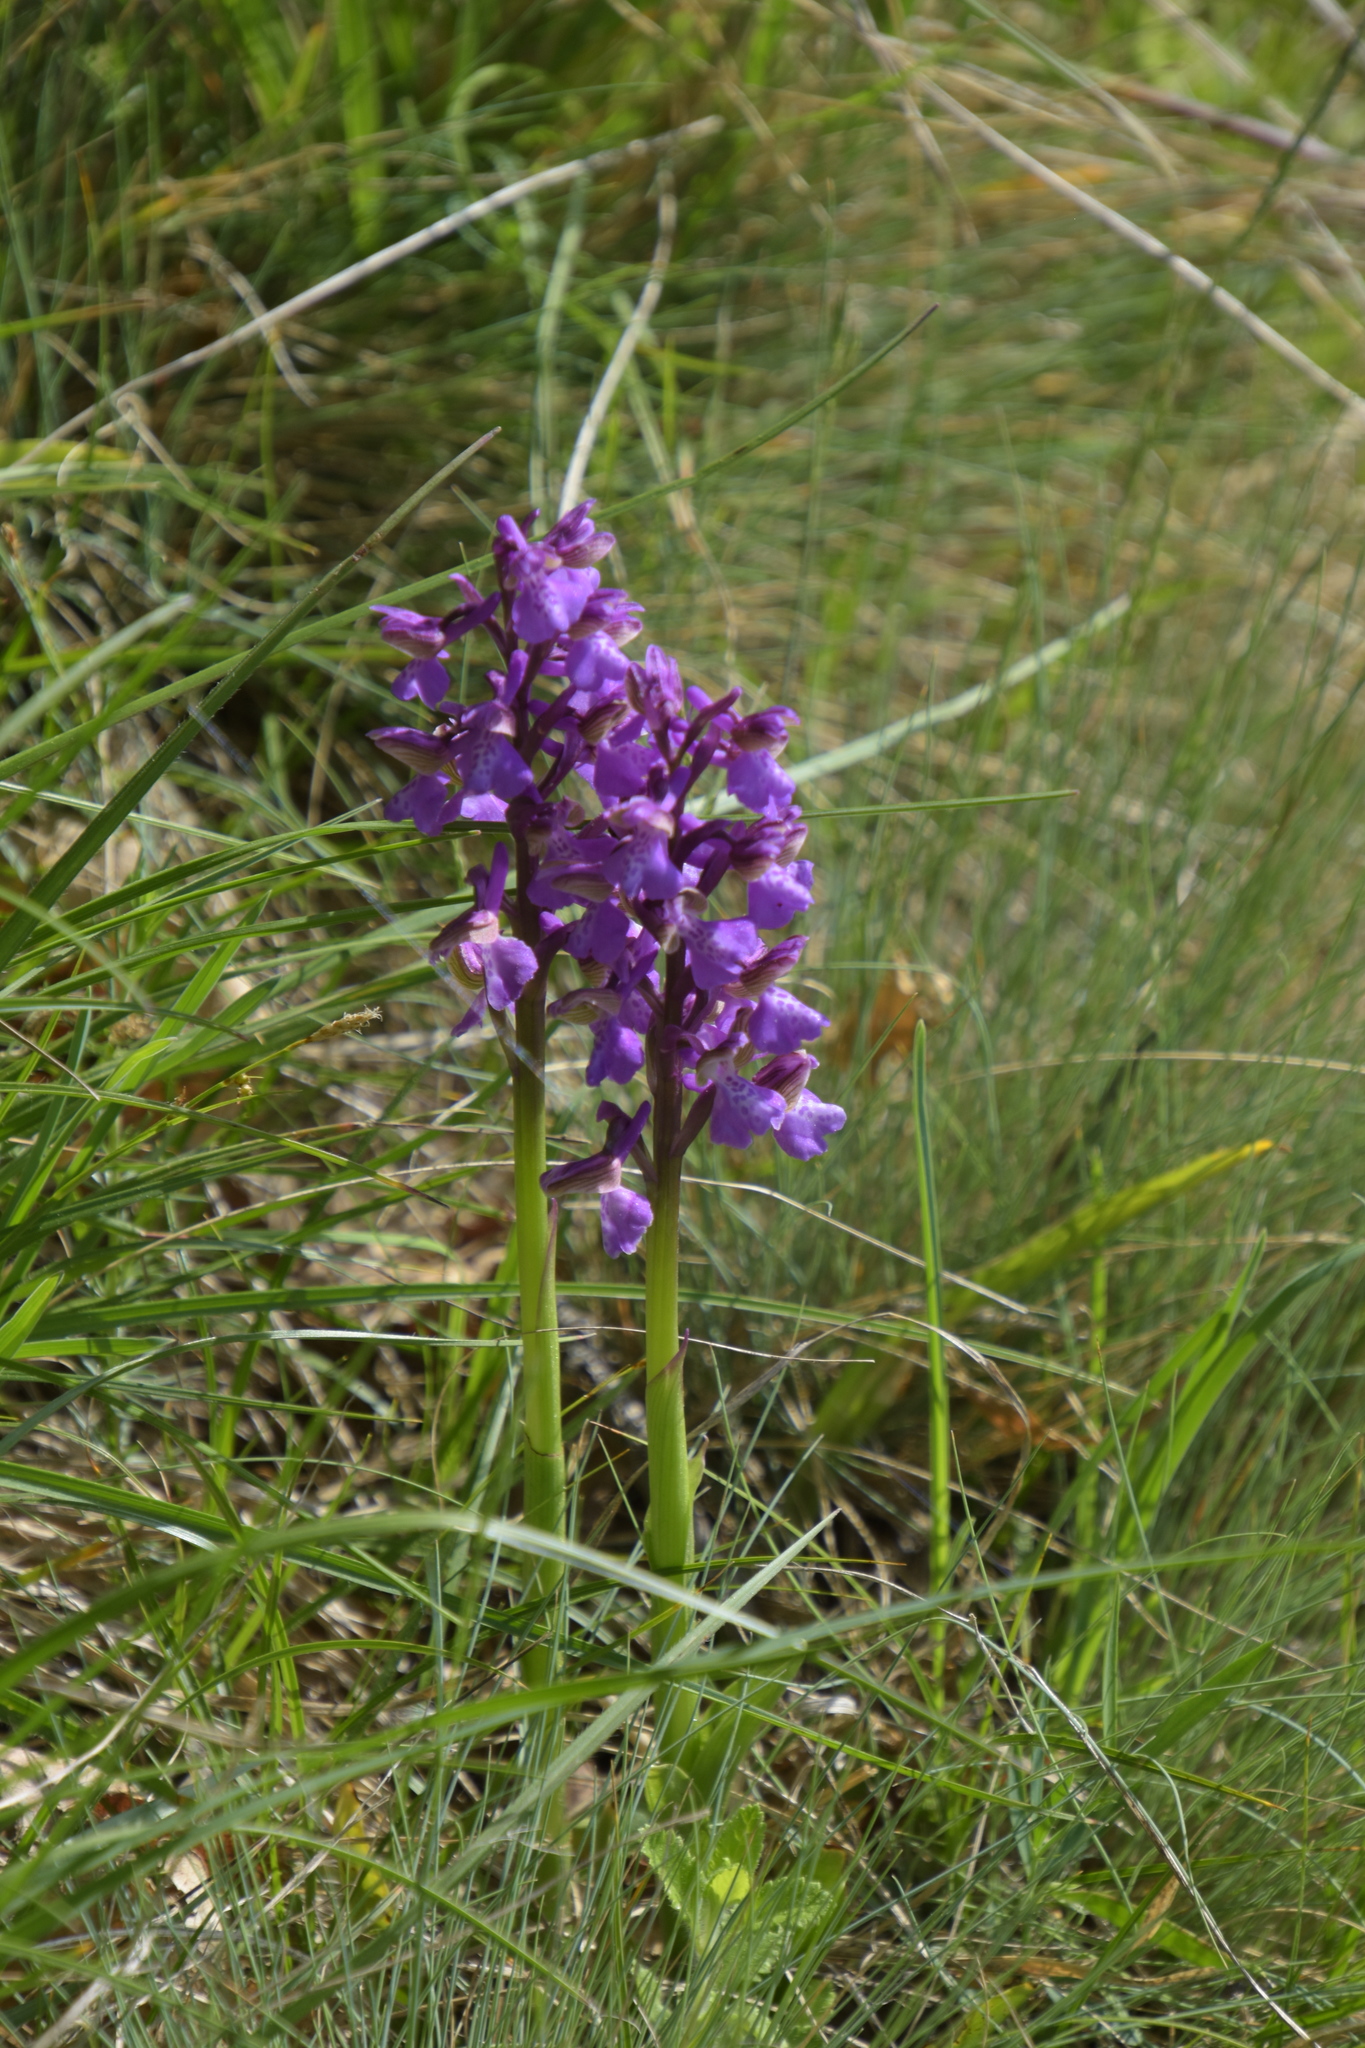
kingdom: Plantae
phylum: Tracheophyta
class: Liliopsida
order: Asparagales
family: Orchidaceae
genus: Anacamptis
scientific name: Anacamptis morio
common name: Green-winged orchid
